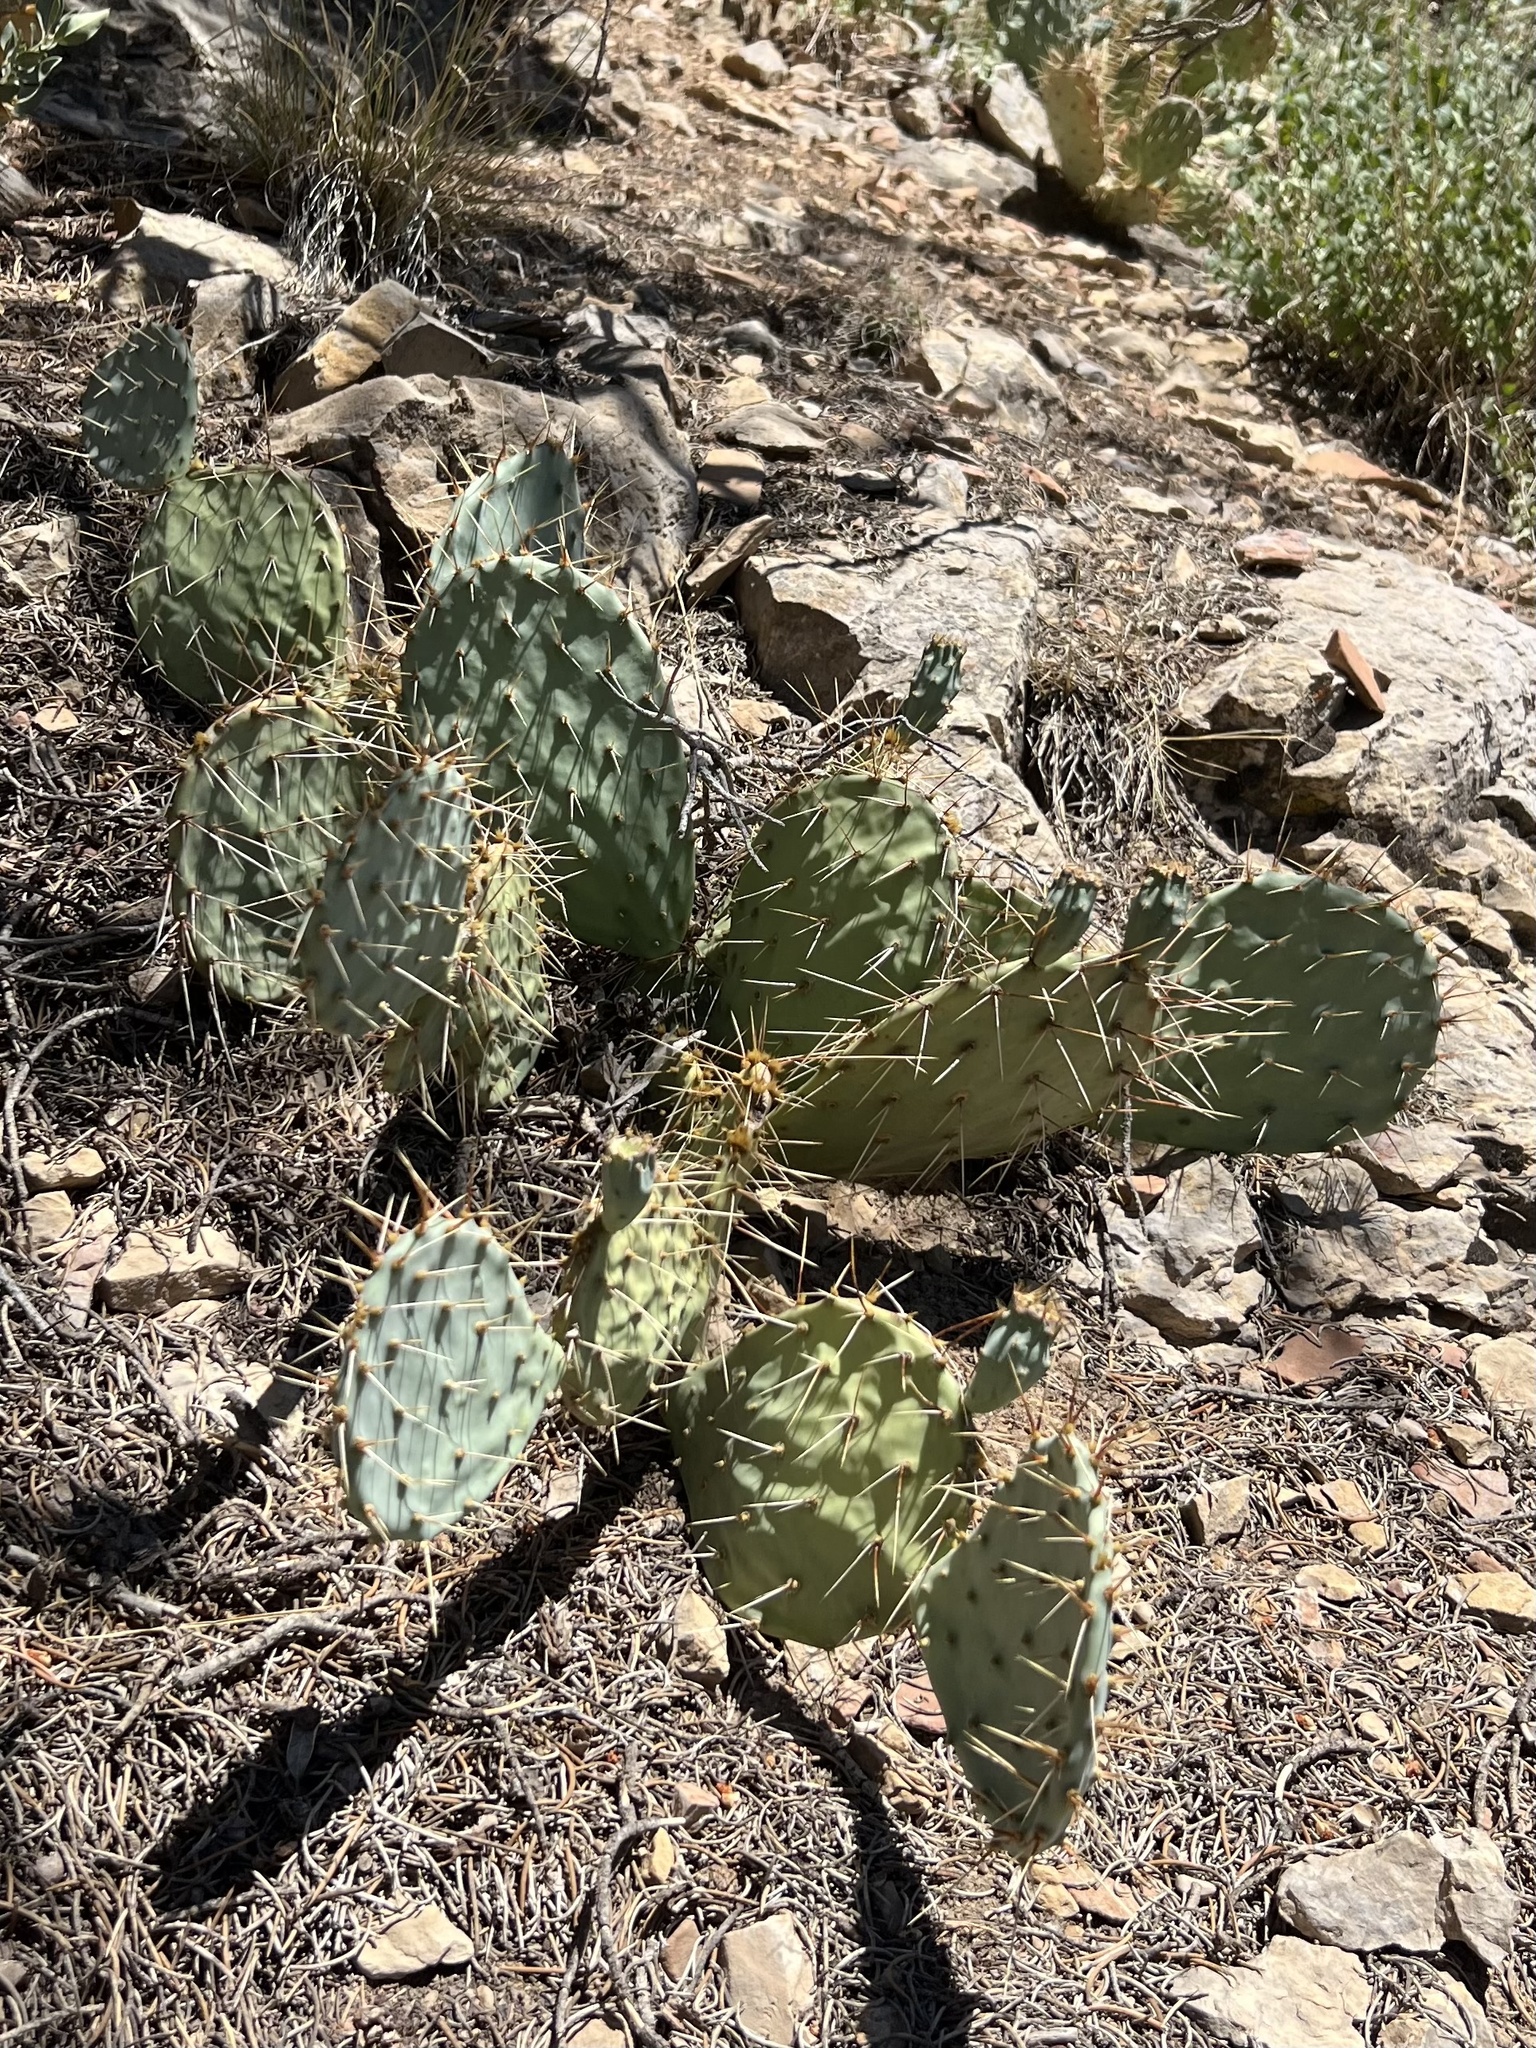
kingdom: Plantae
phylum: Tracheophyta
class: Magnoliopsida
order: Caryophyllales
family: Cactaceae
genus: Opuntia
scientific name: Opuntia phaeacantha
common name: New mexico prickly-pear
